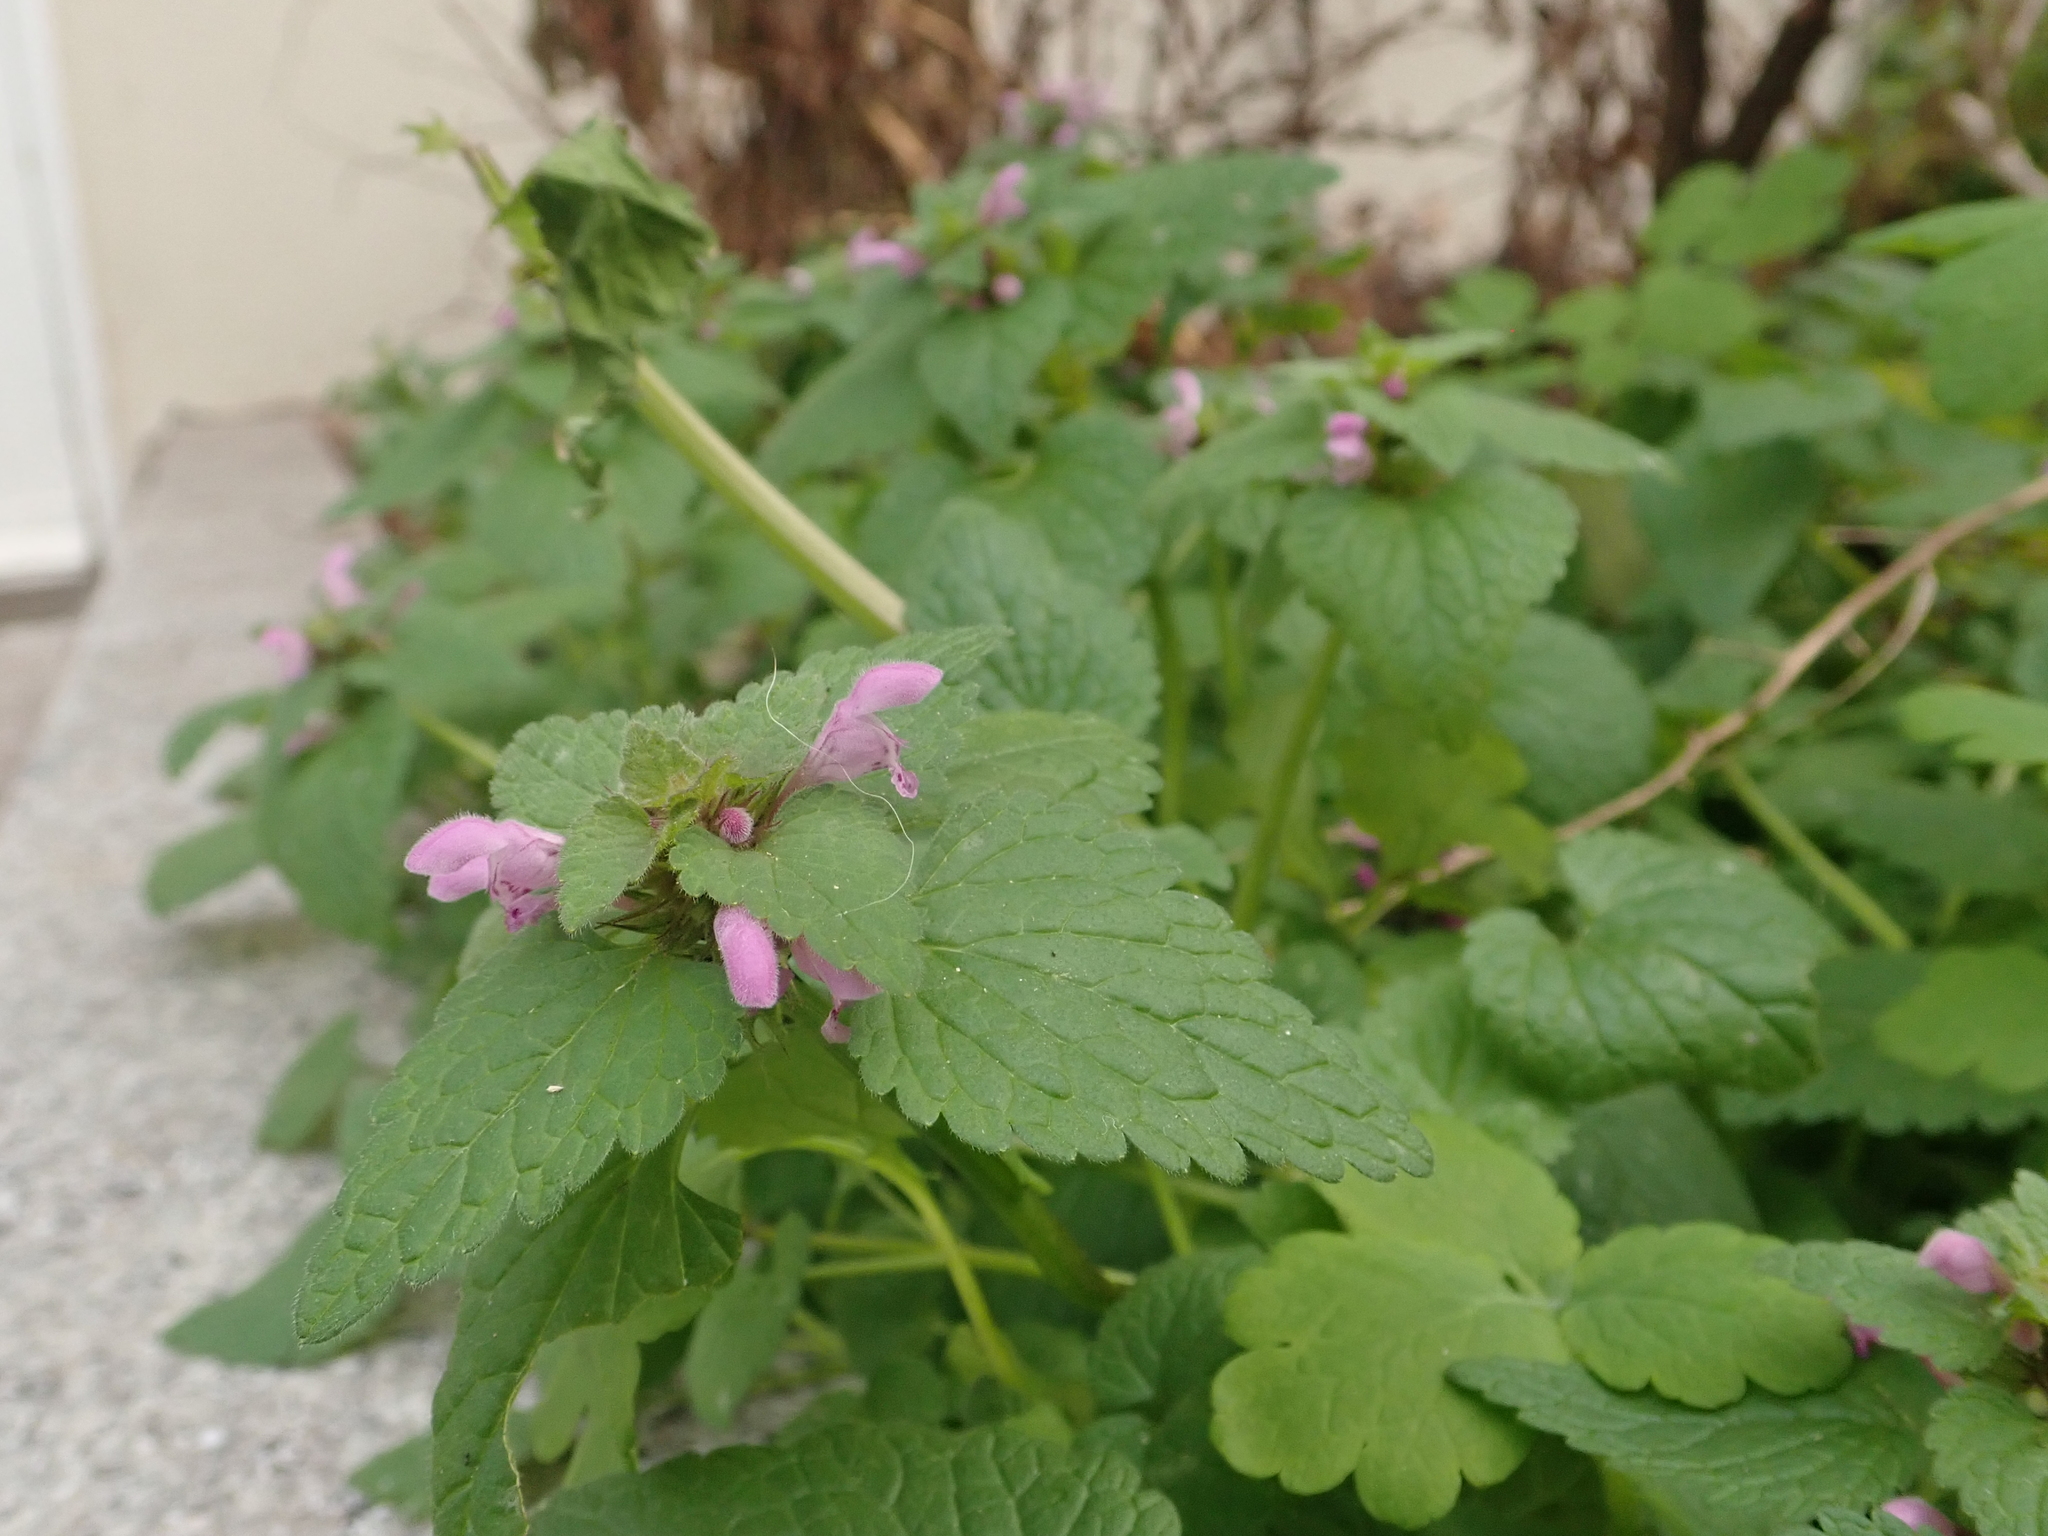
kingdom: Plantae
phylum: Tracheophyta
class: Magnoliopsida
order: Lamiales
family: Lamiaceae
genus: Lamium
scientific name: Lamium purpureum
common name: Red dead-nettle
